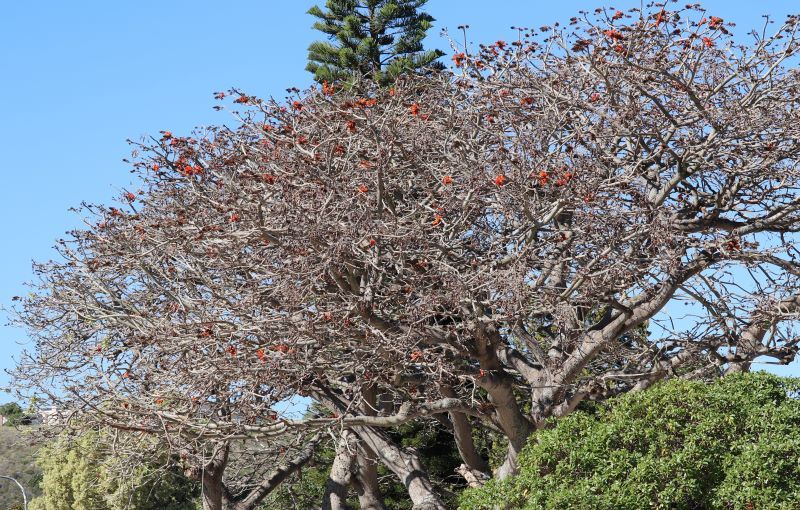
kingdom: Plantae
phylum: Tracheophyta
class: Magnoliopsida
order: Fabales
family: Fabaceae
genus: Erythrina
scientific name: Erythrina caffra
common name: Coast coral tree
